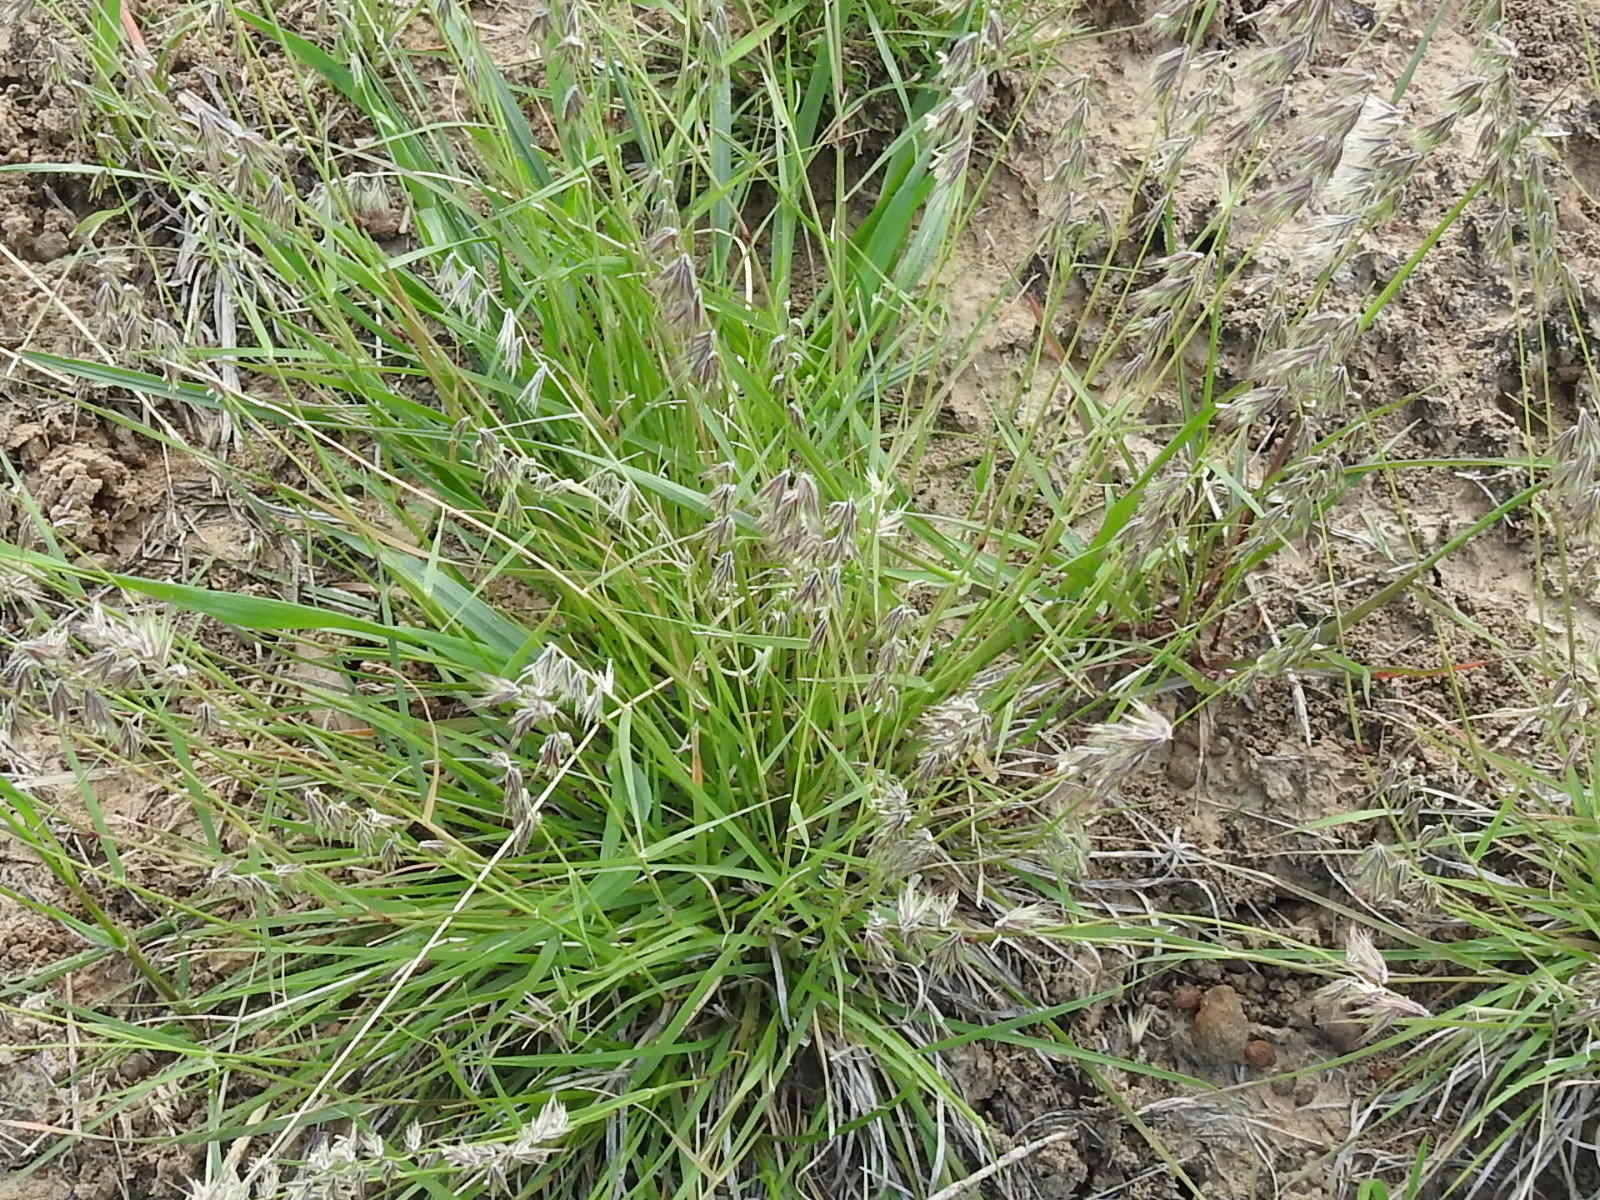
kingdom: Plantae
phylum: Tracheophyta
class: Liliopsida
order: Poales
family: Poaceae
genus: Bouteloua
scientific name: Bouteloua rigidiseta
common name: Texas grama
